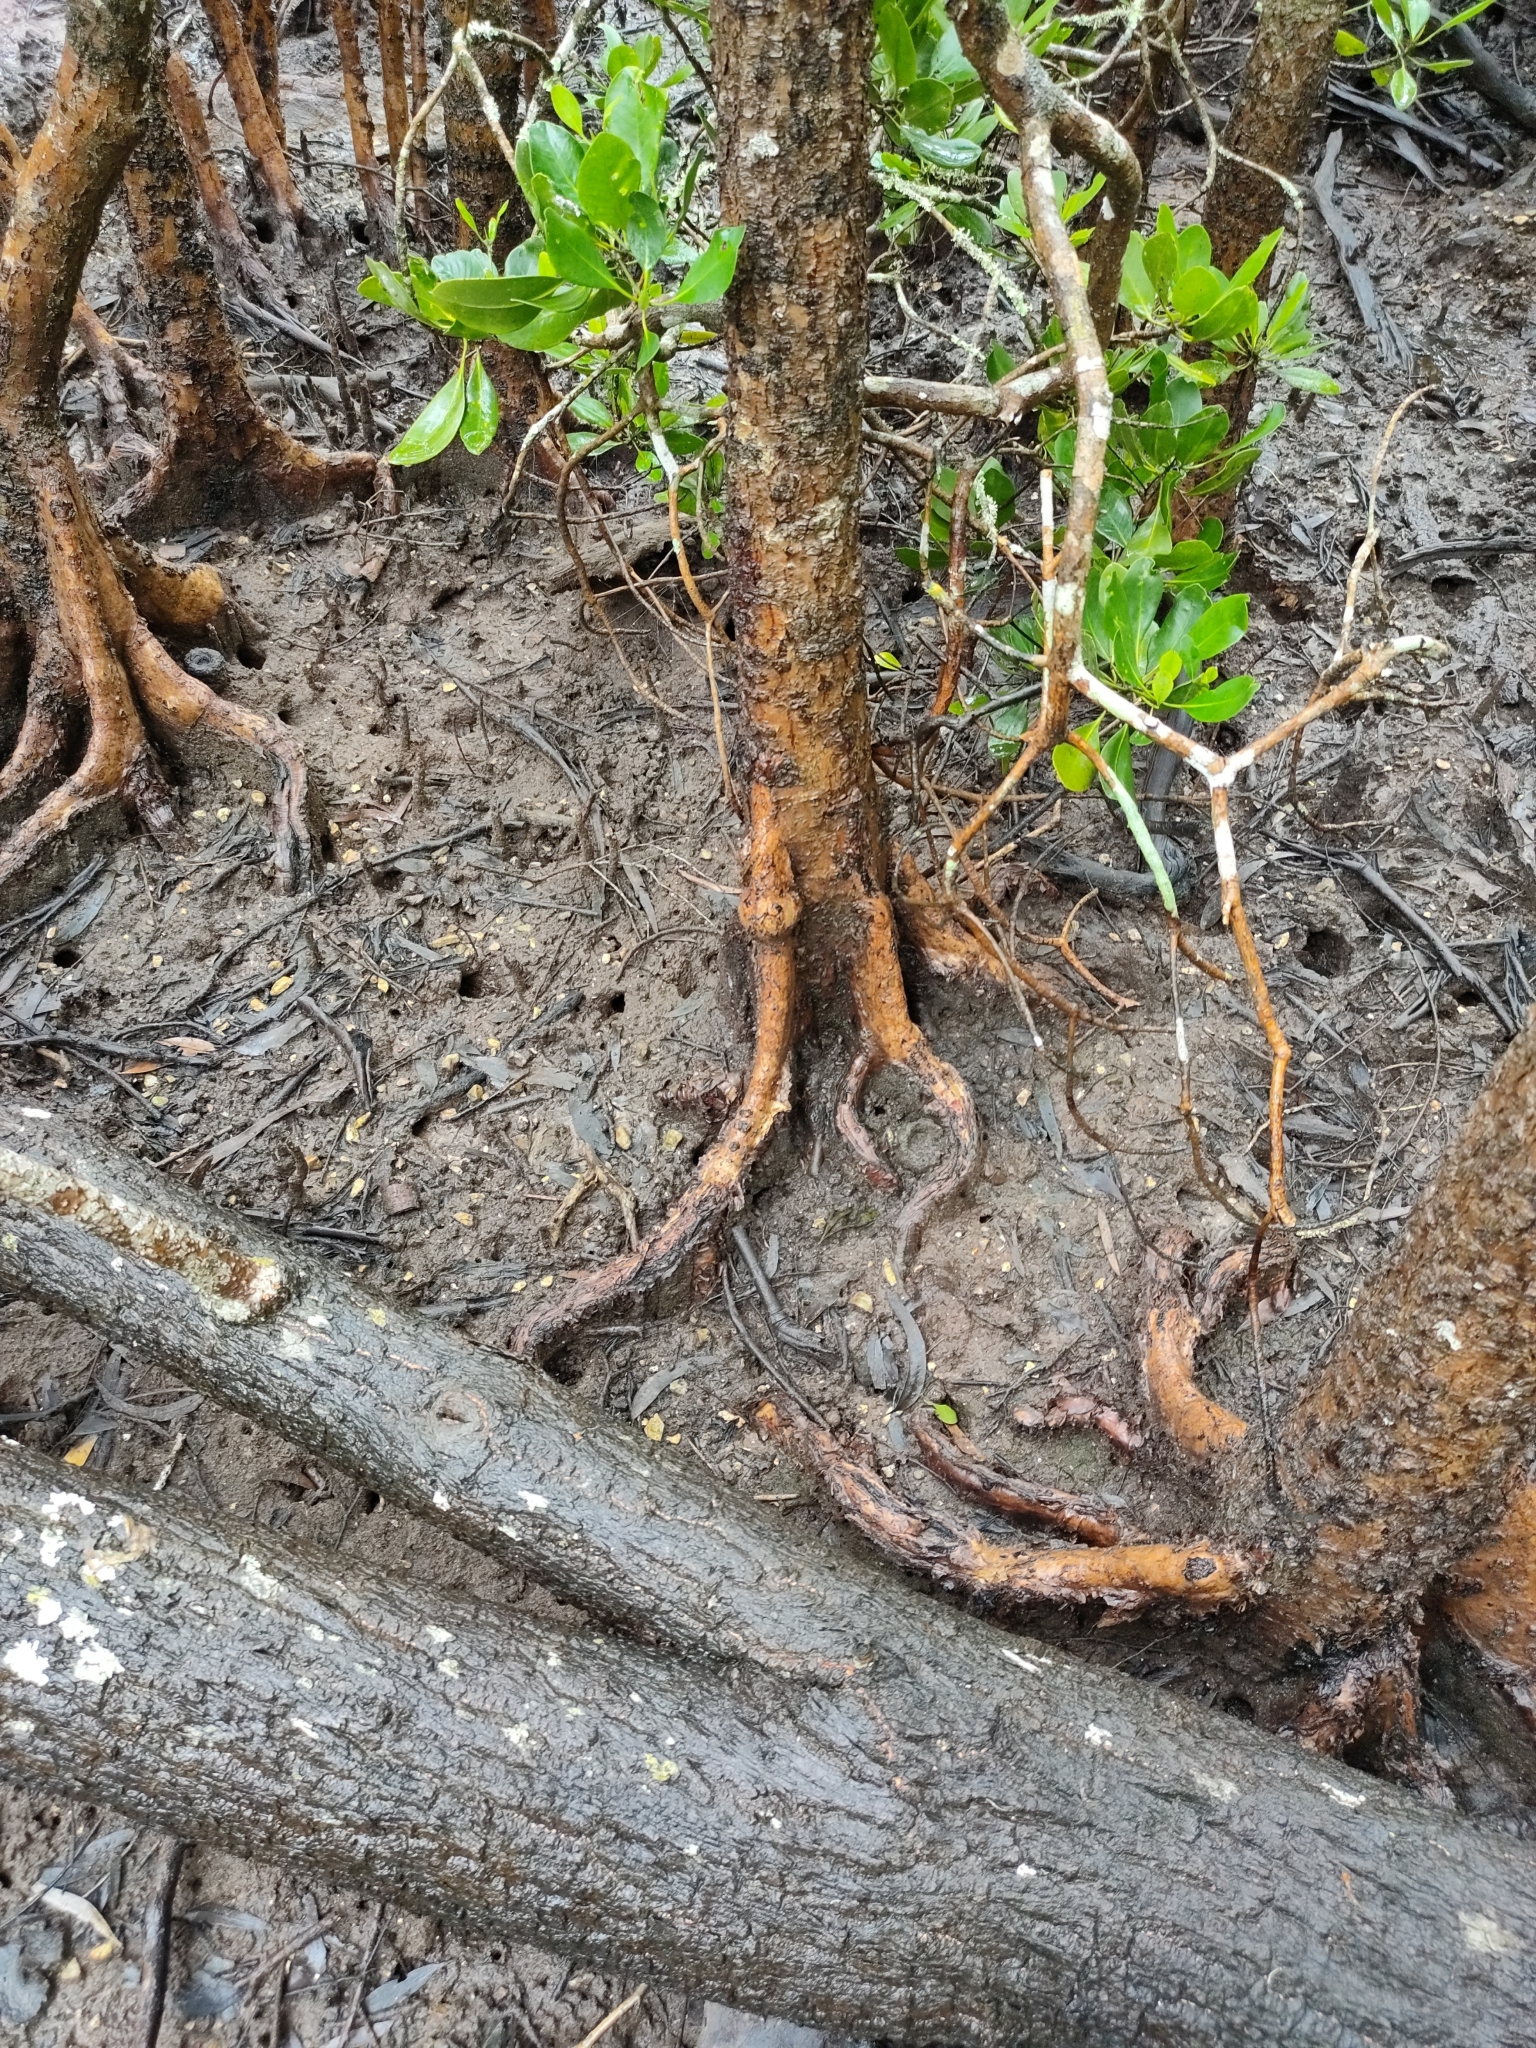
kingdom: Plantae
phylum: Tracheophyta
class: Magnoliopsida
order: Malpighiales
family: Rhizophoraceae
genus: Ceriops
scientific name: Ceriops australis
